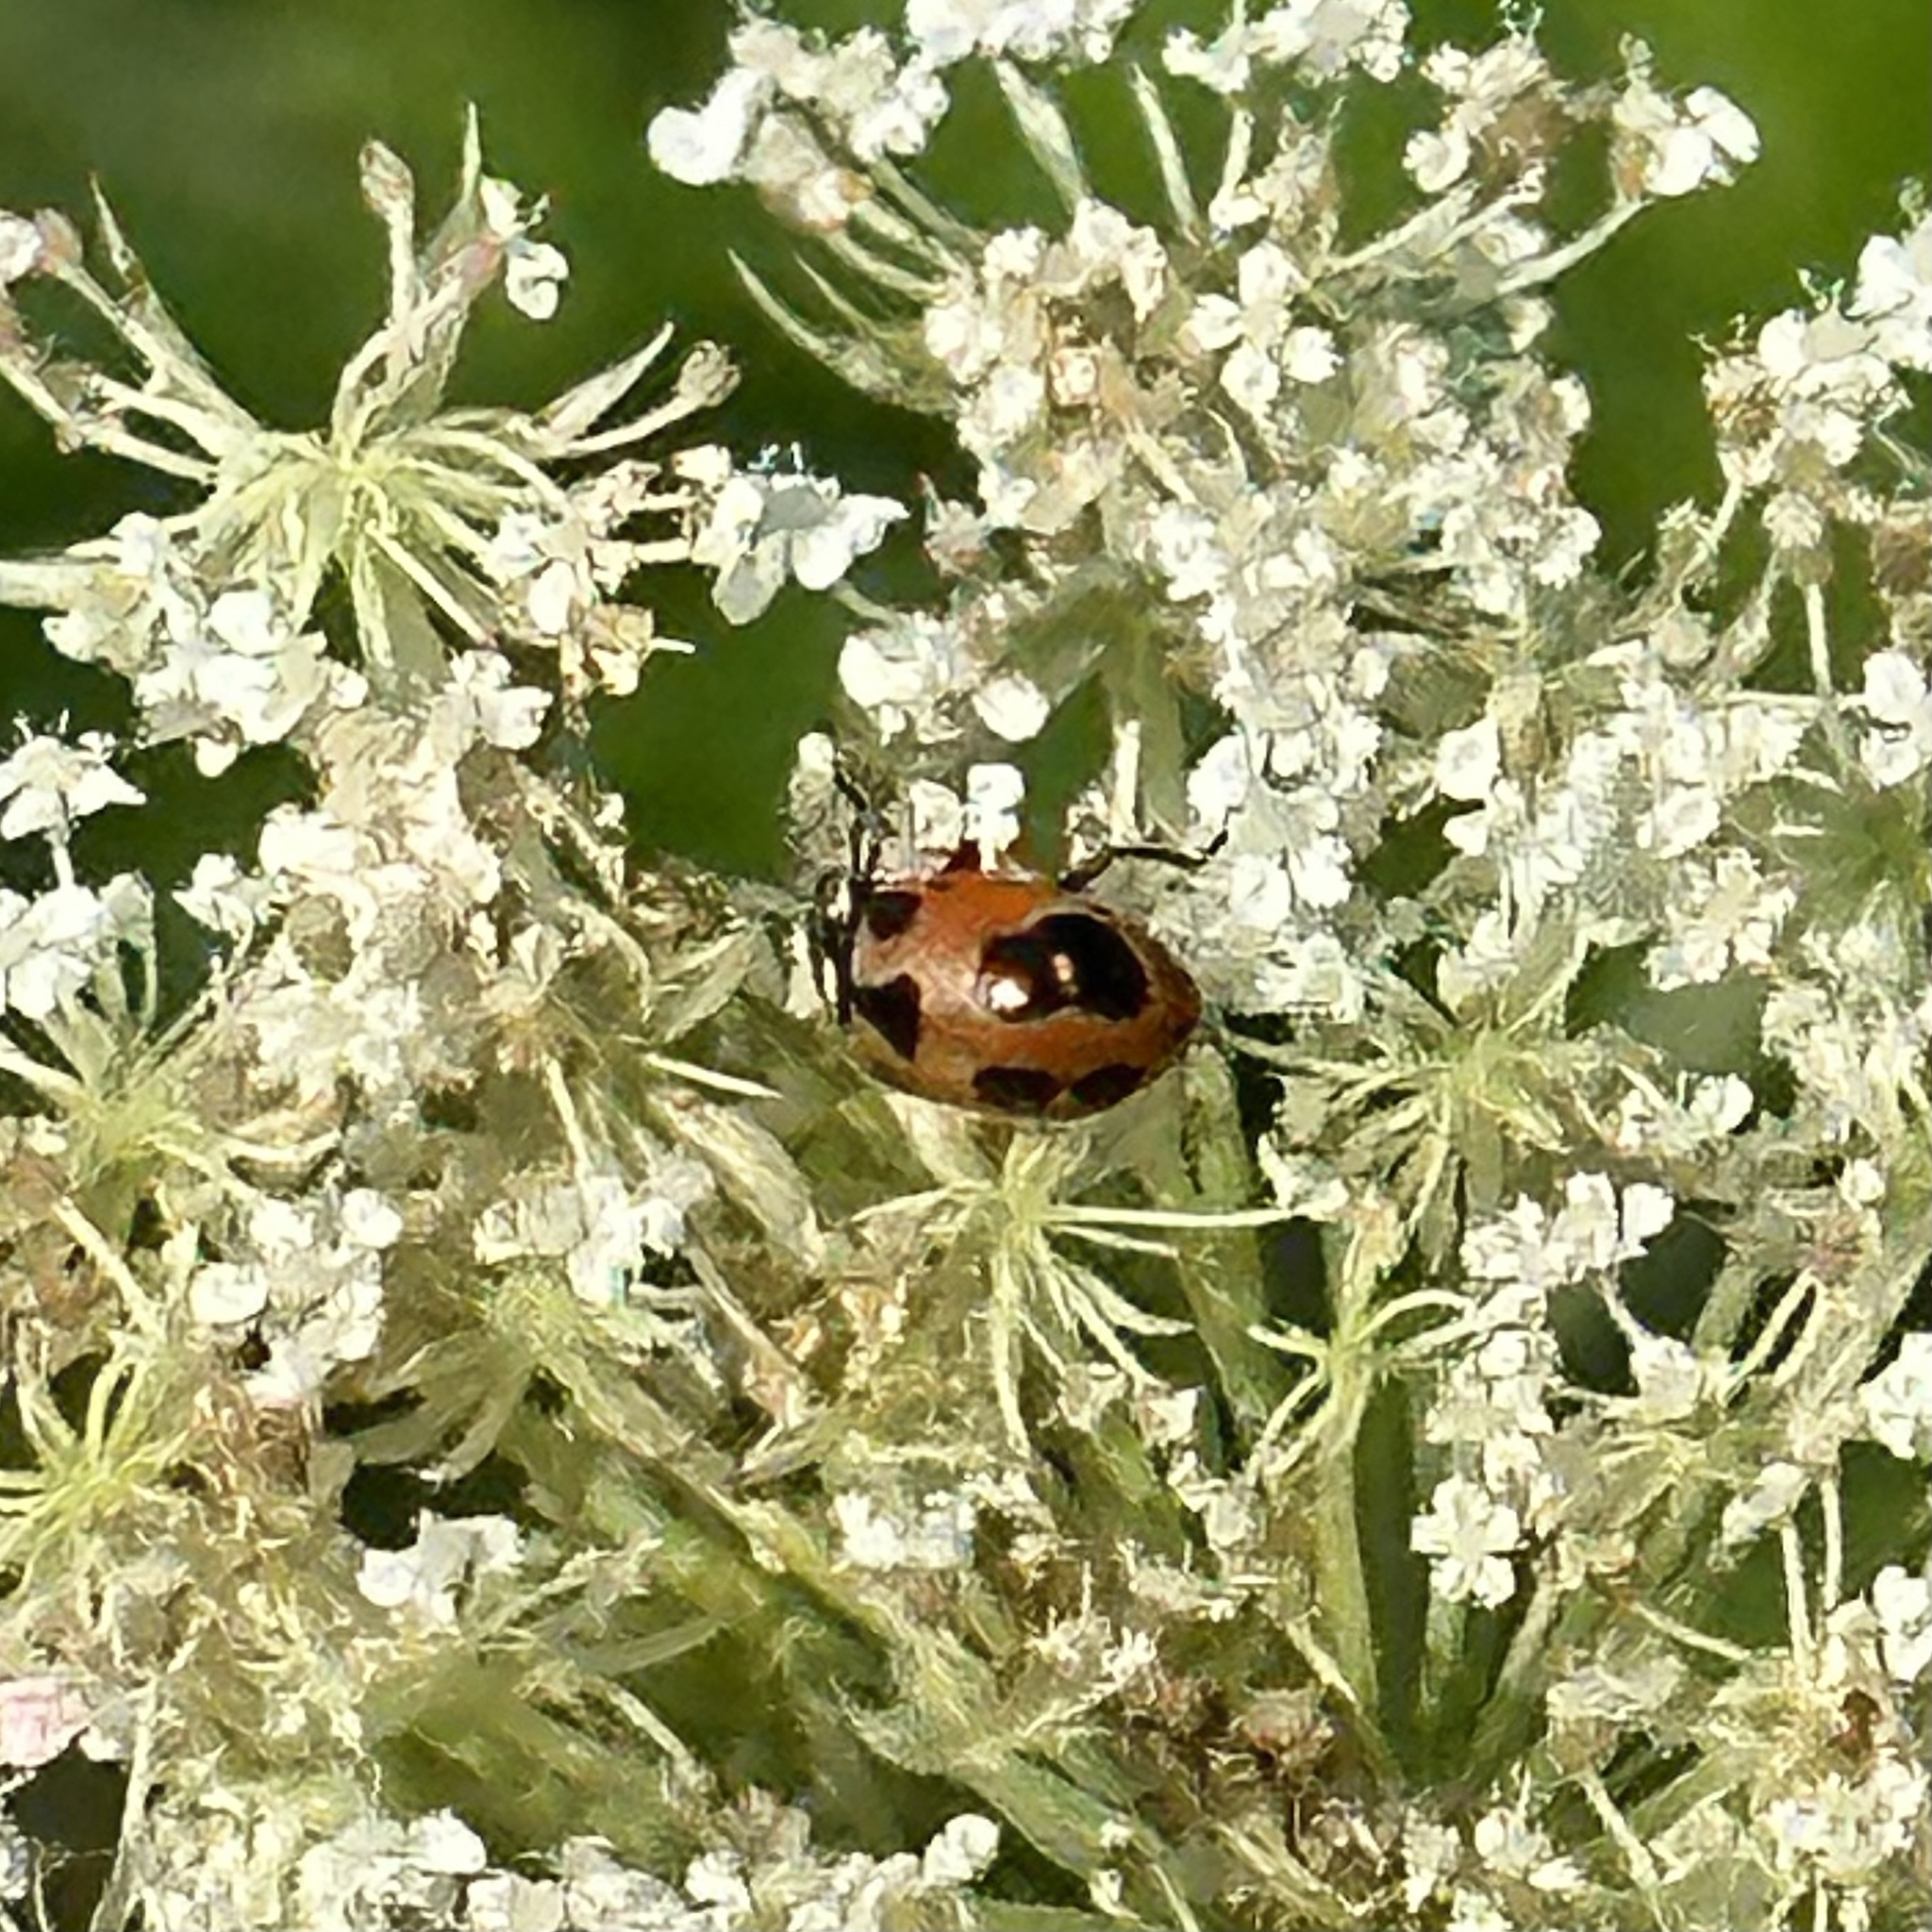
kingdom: Animalia
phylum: Arthropoda
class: Insecta
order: Coleoptera
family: Coccinellidae
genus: Hippodamia
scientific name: Hippodamia parenthesis
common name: Parenthesis lady beetle
